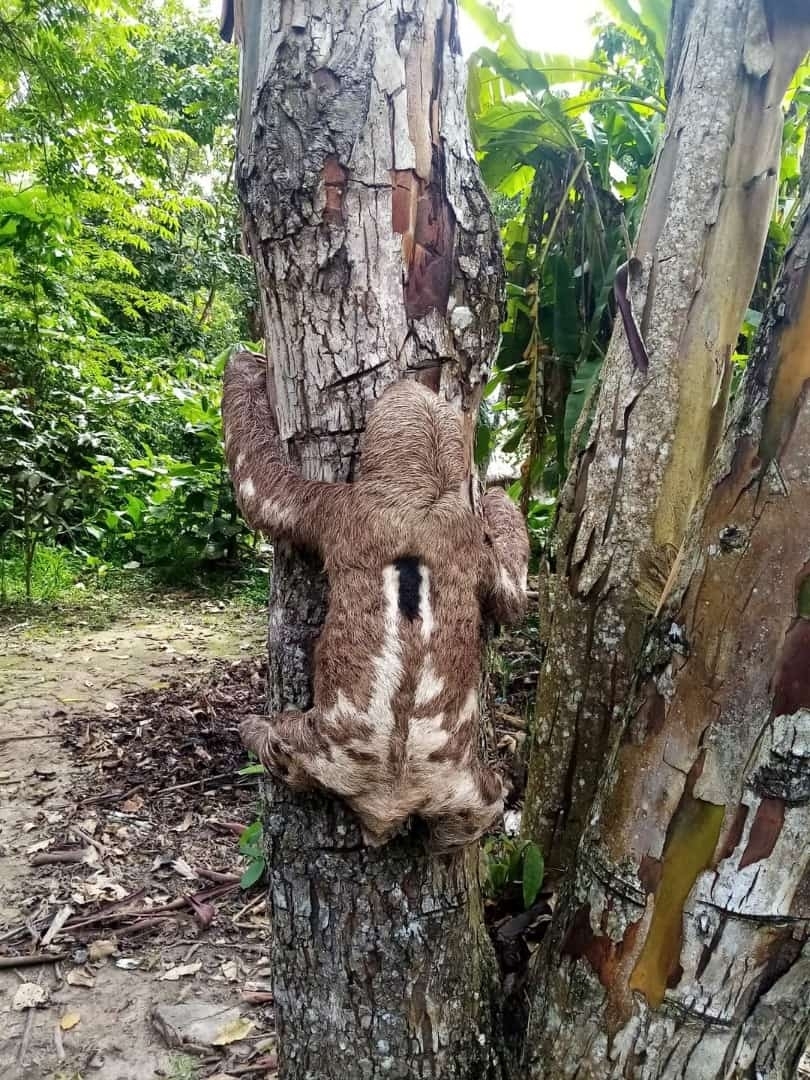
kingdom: Animalia
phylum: Chordata
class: Mammalia
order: Pilosa
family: Bradypodidae
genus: Bradypus
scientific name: Bradypus variegatus
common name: Brown-throated three-toed sloth
